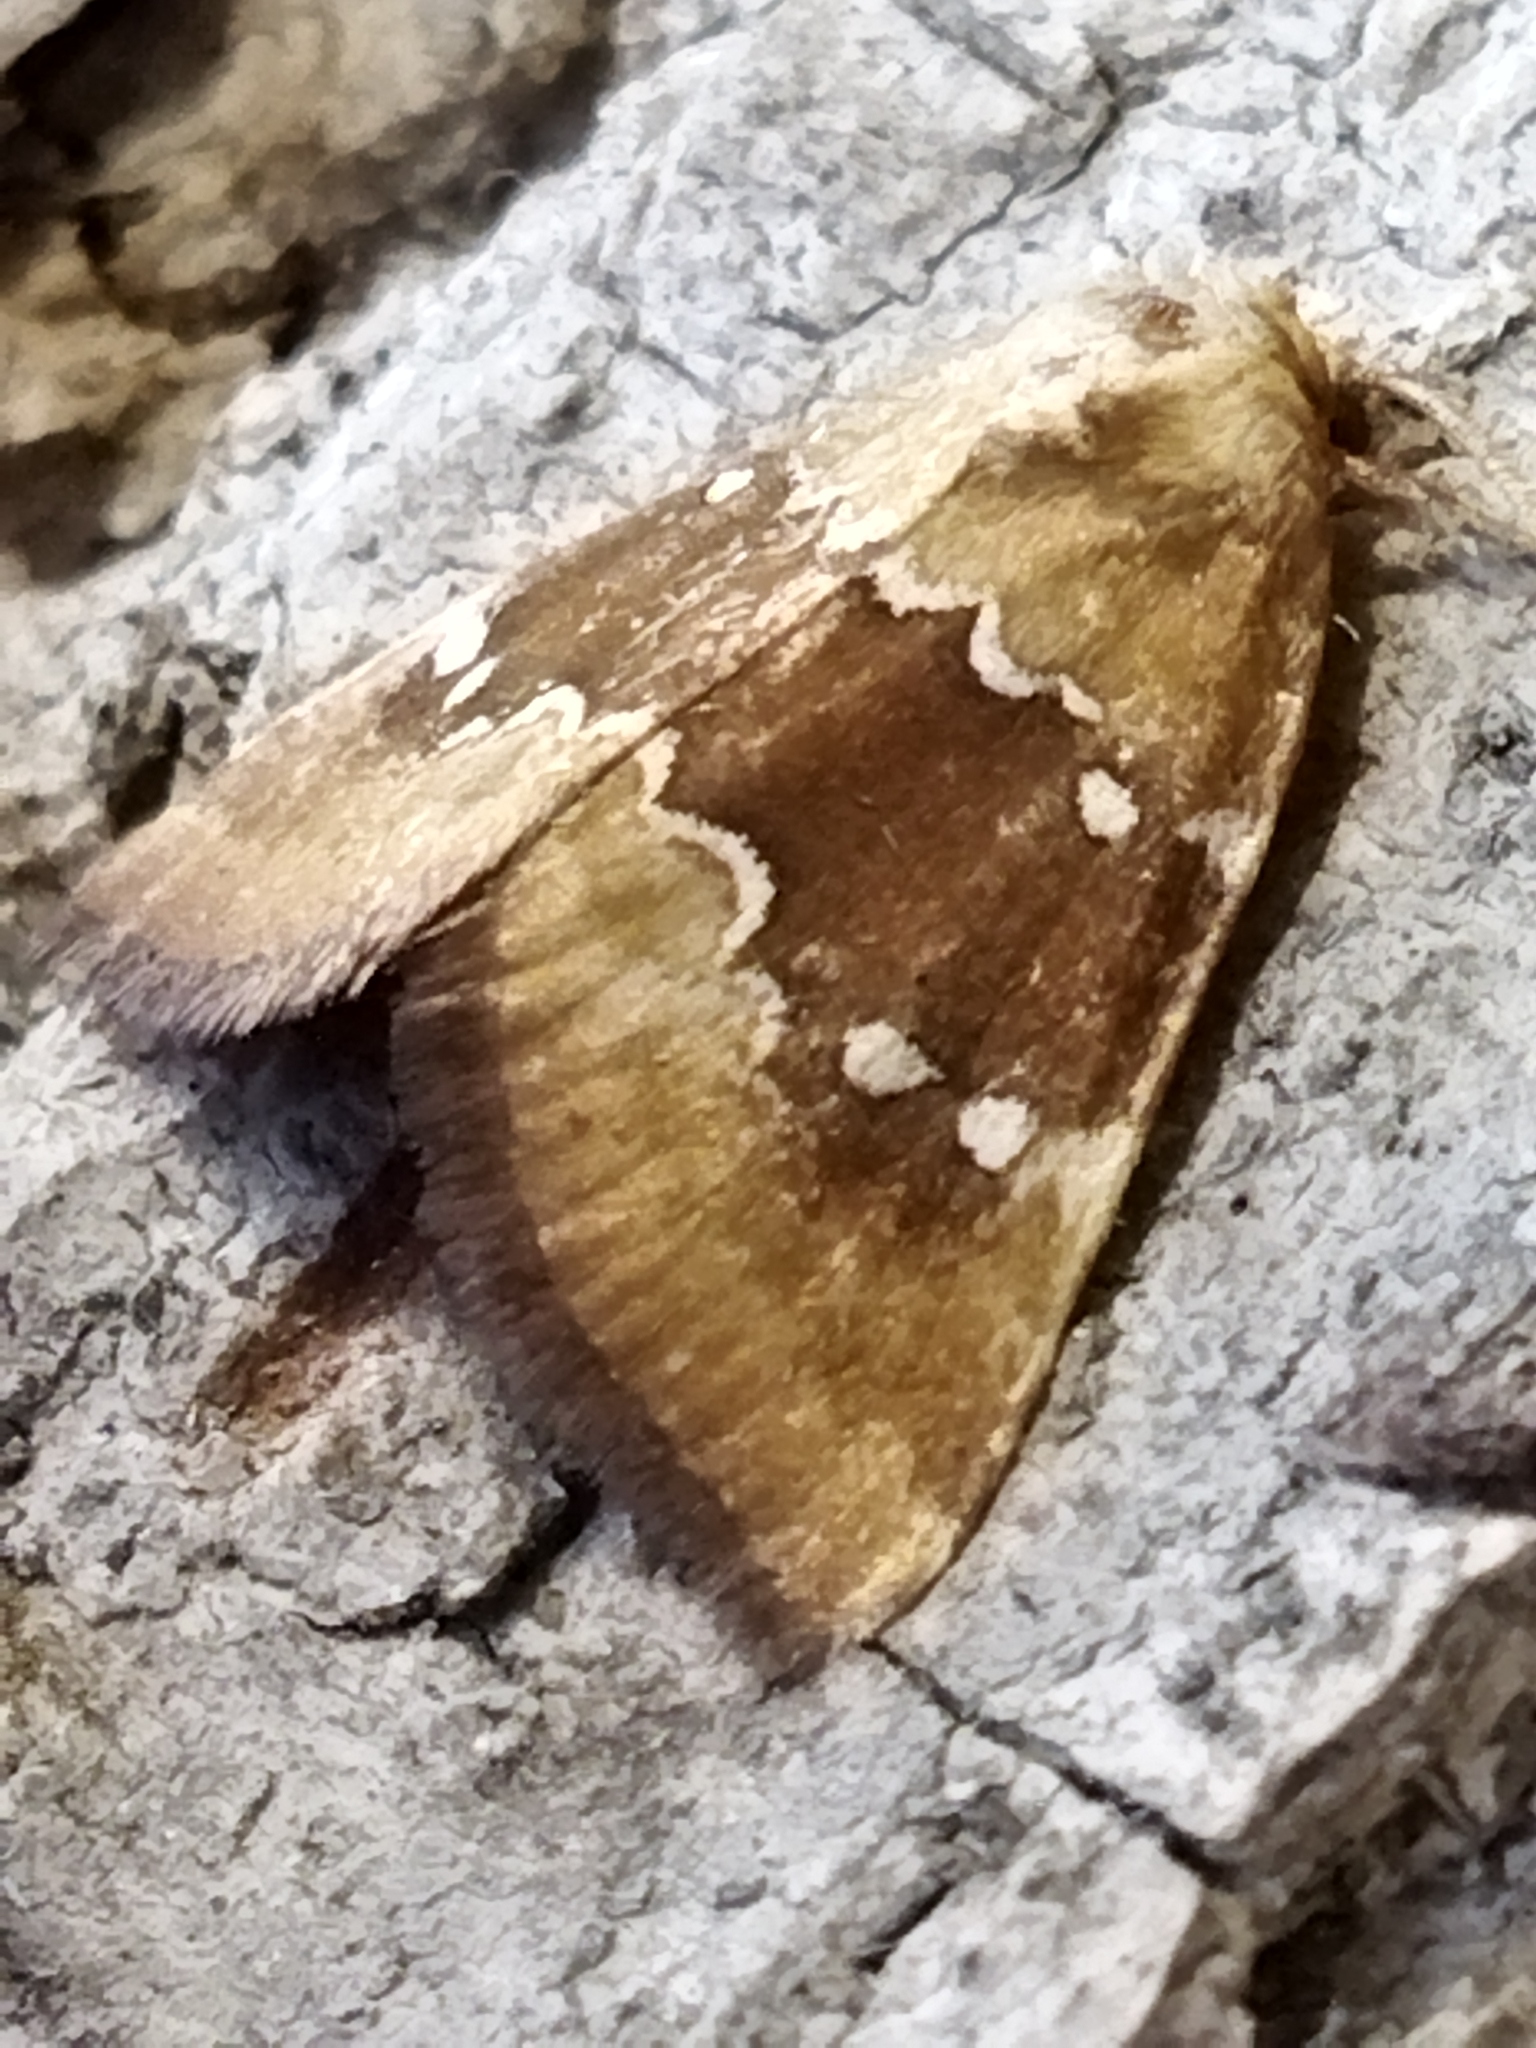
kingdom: Animalia
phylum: Arthropoda
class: Insecta
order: Lepidoptera
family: Noctuidae
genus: Haemerosia
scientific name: Haemerosia vassilininei
